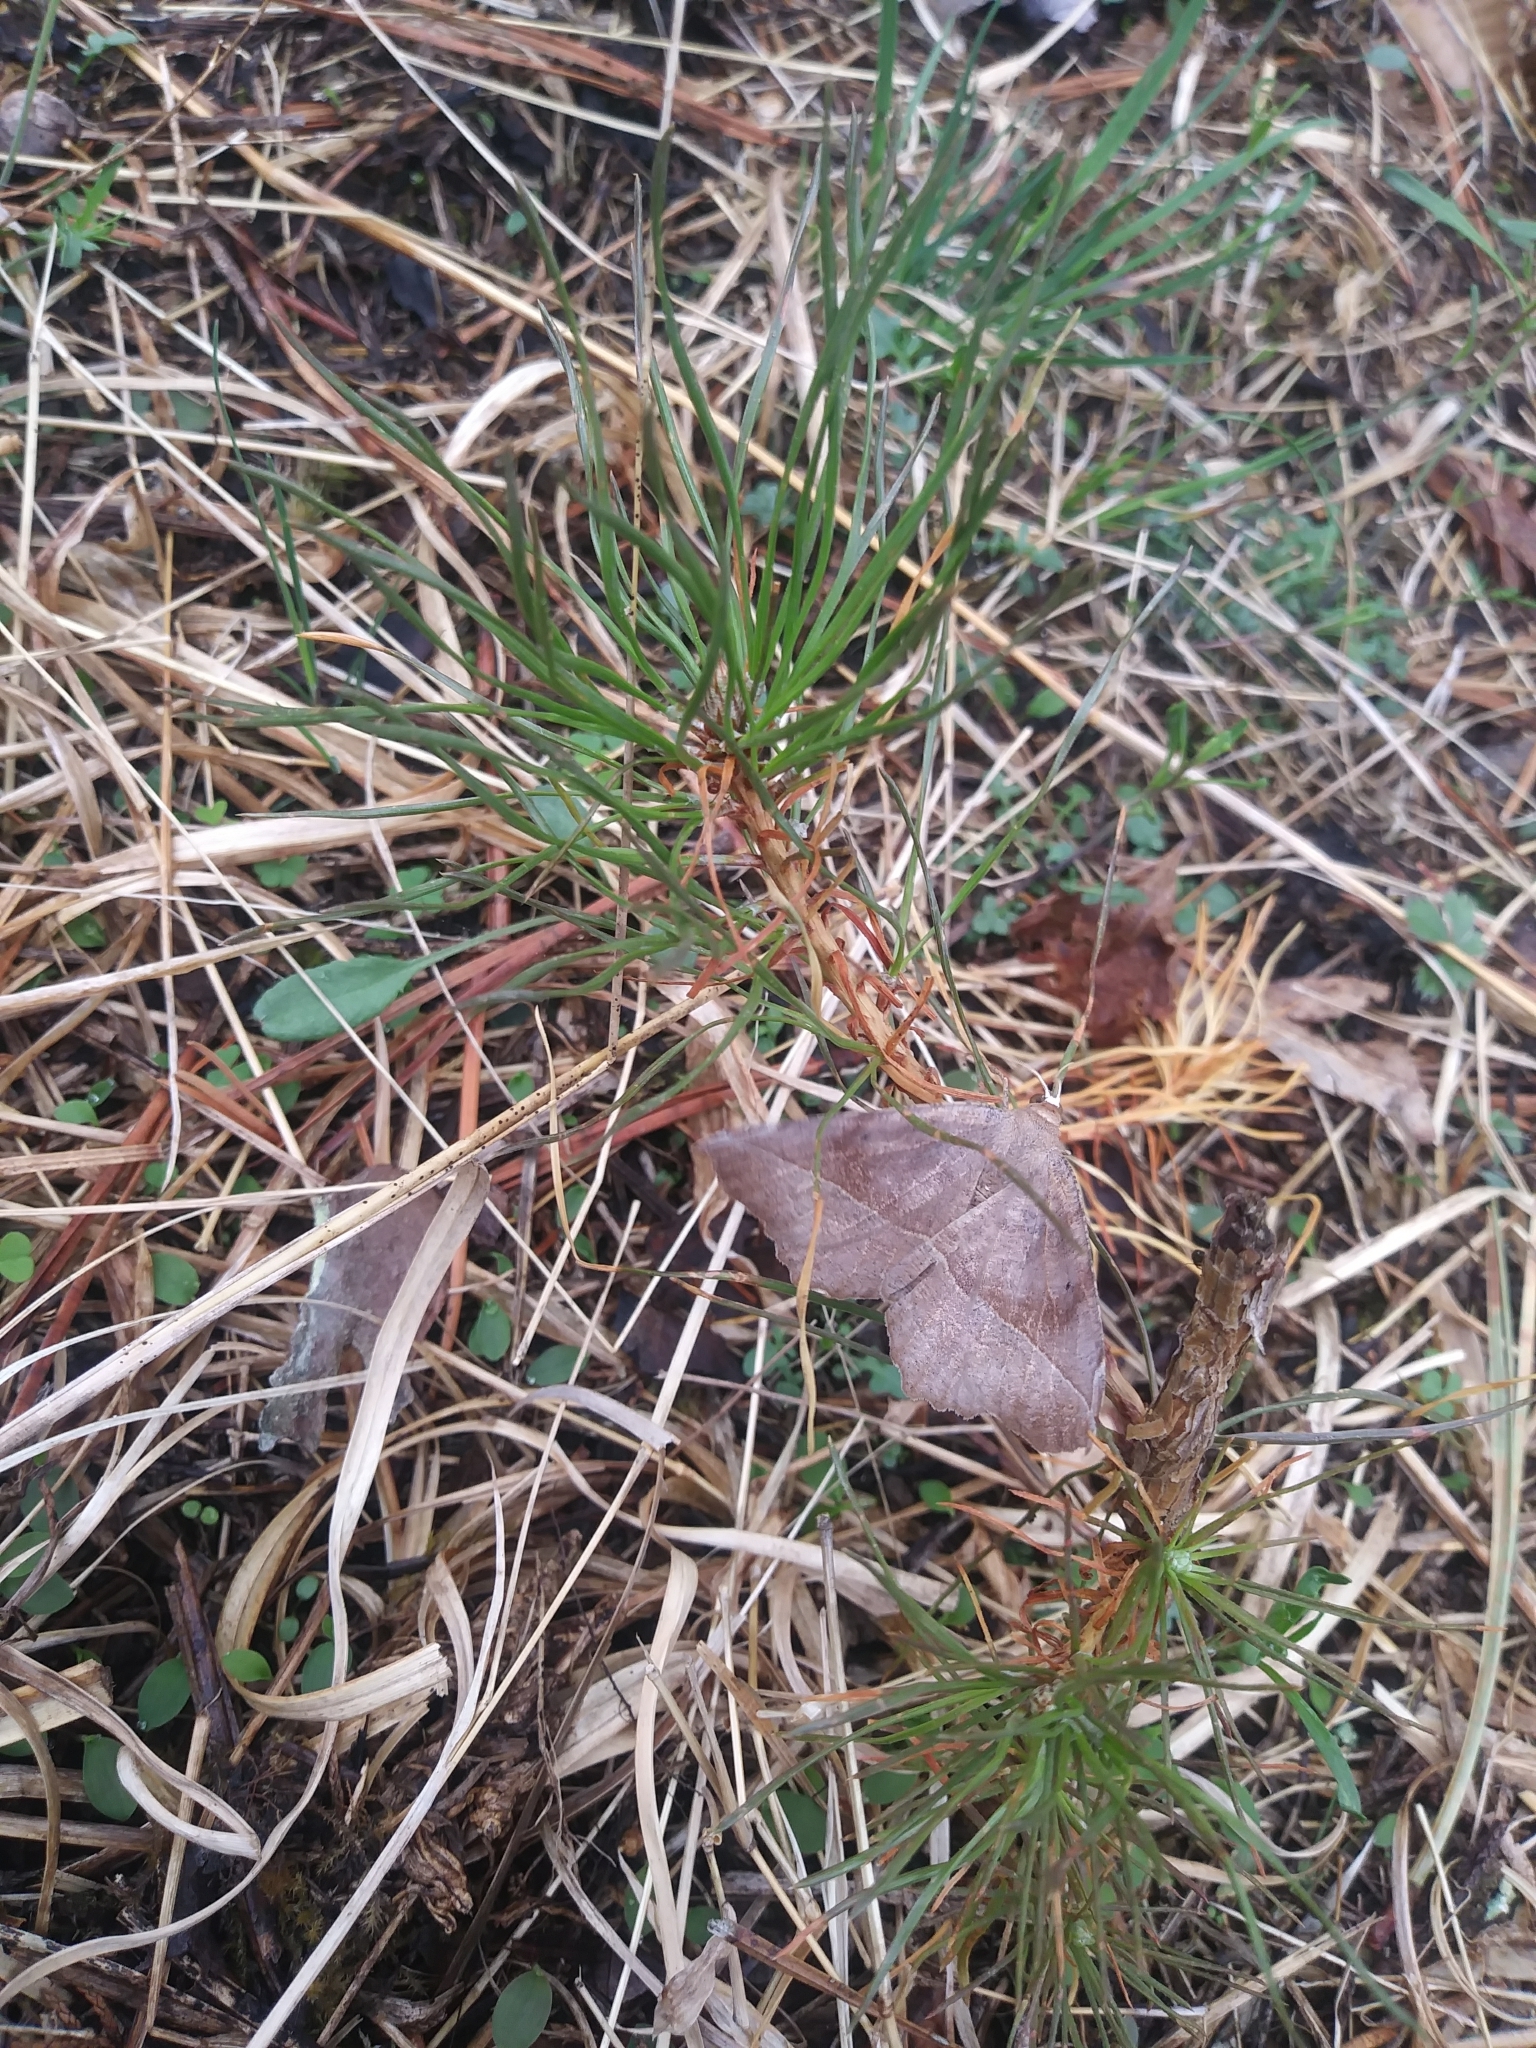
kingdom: Animalia
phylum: Arthropoda
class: Insecta
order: Lepidoptera
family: Geometridae
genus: Eutrapela
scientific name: Eutrapela clemataria
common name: Curved-toothed geometer
